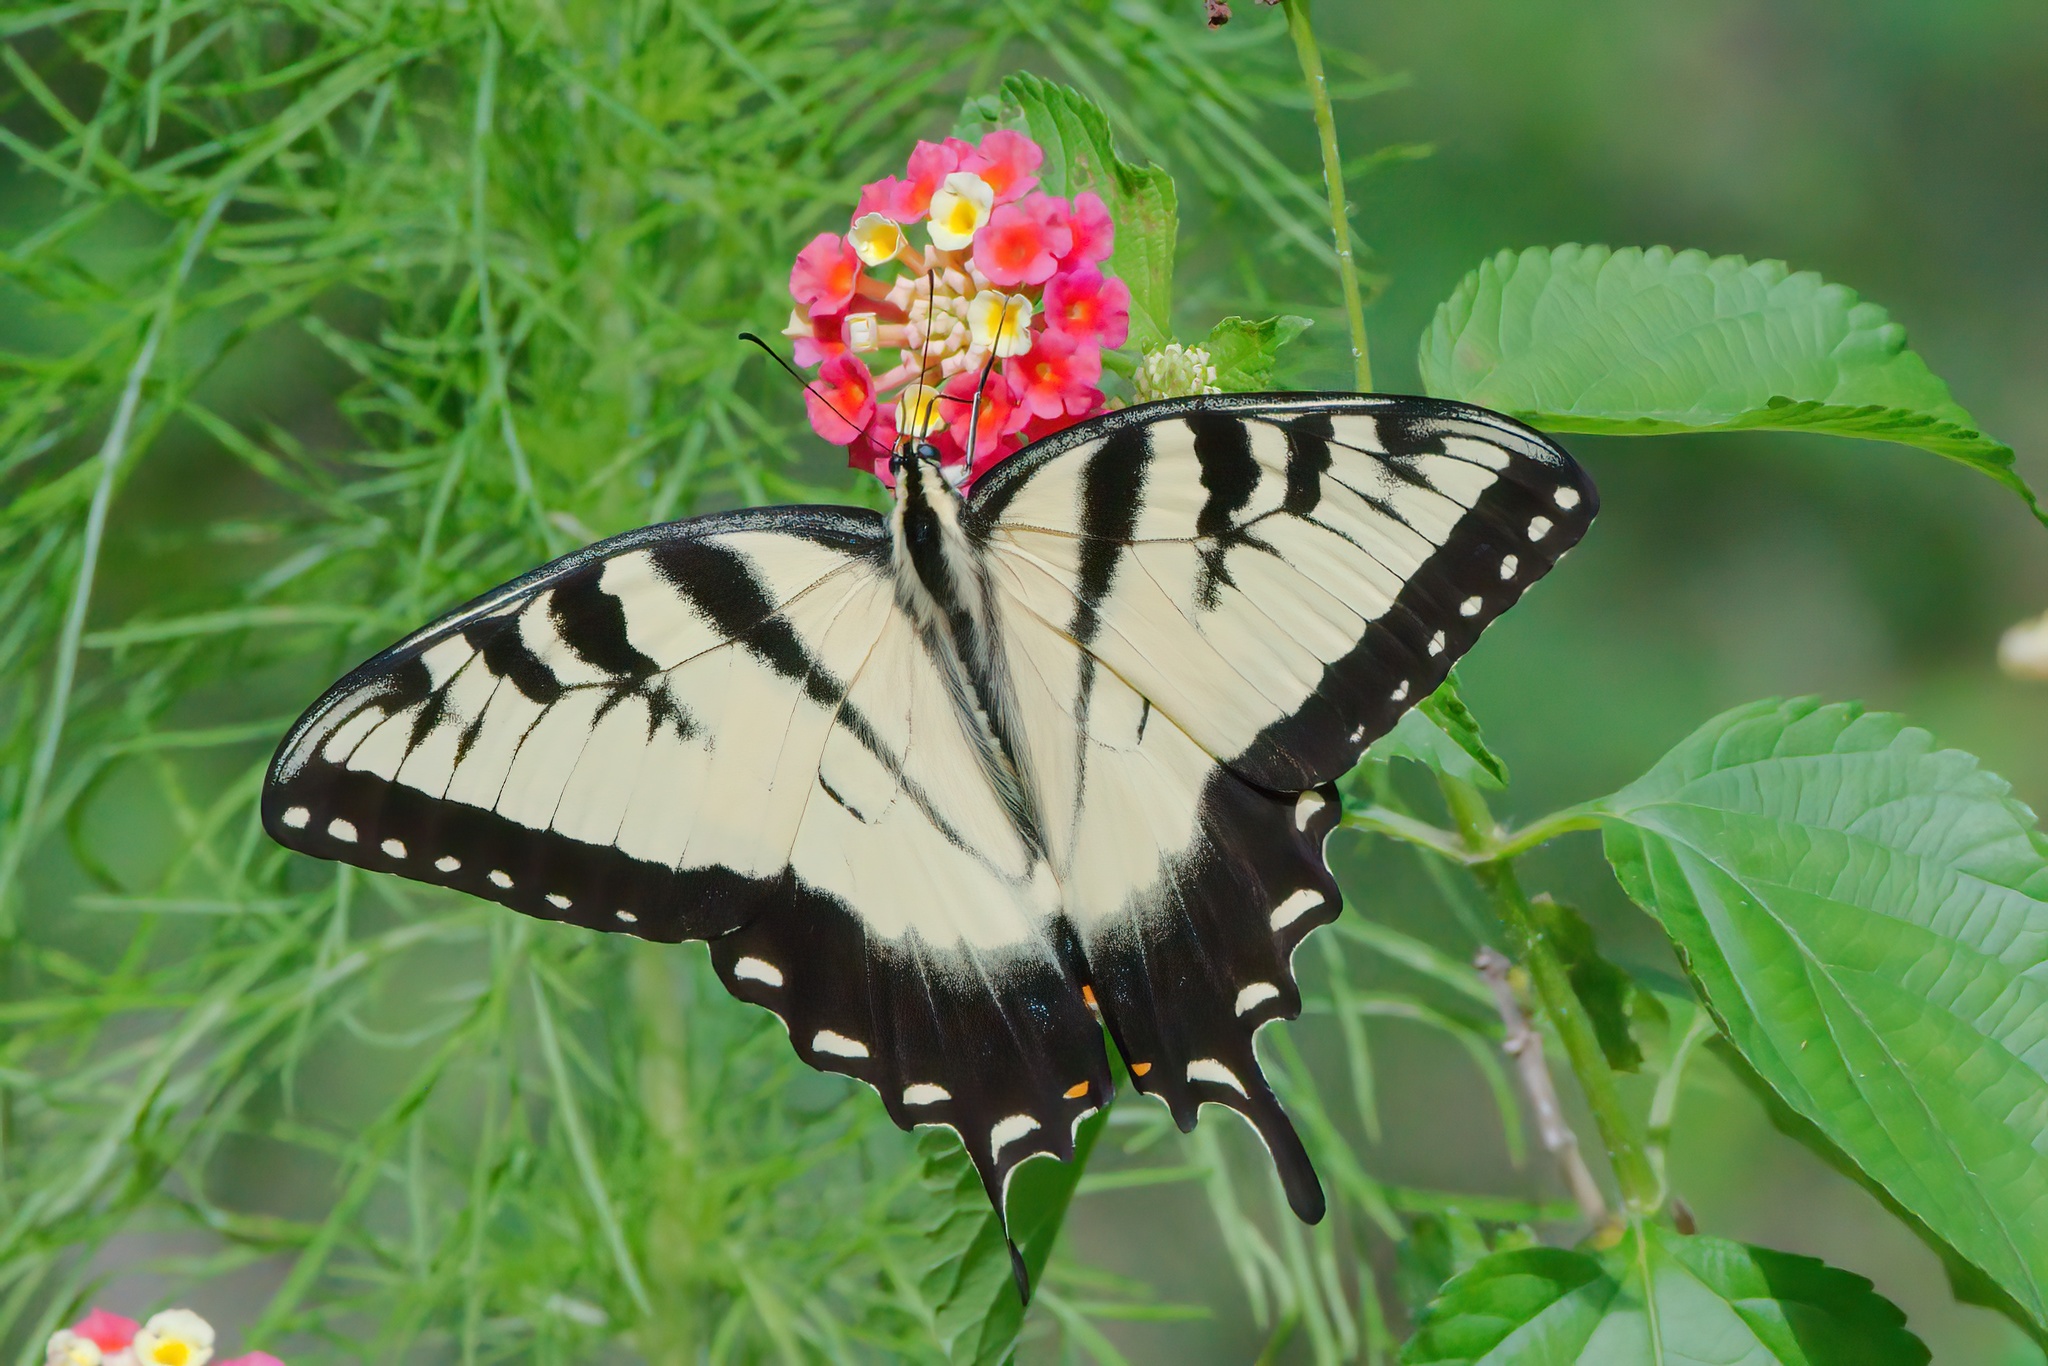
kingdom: Animalia
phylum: Arthropoda
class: Insecta
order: Lepidoptera
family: Papilionidae
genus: Papilio
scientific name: Papilio glaucus
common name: Tiger swallowtail
